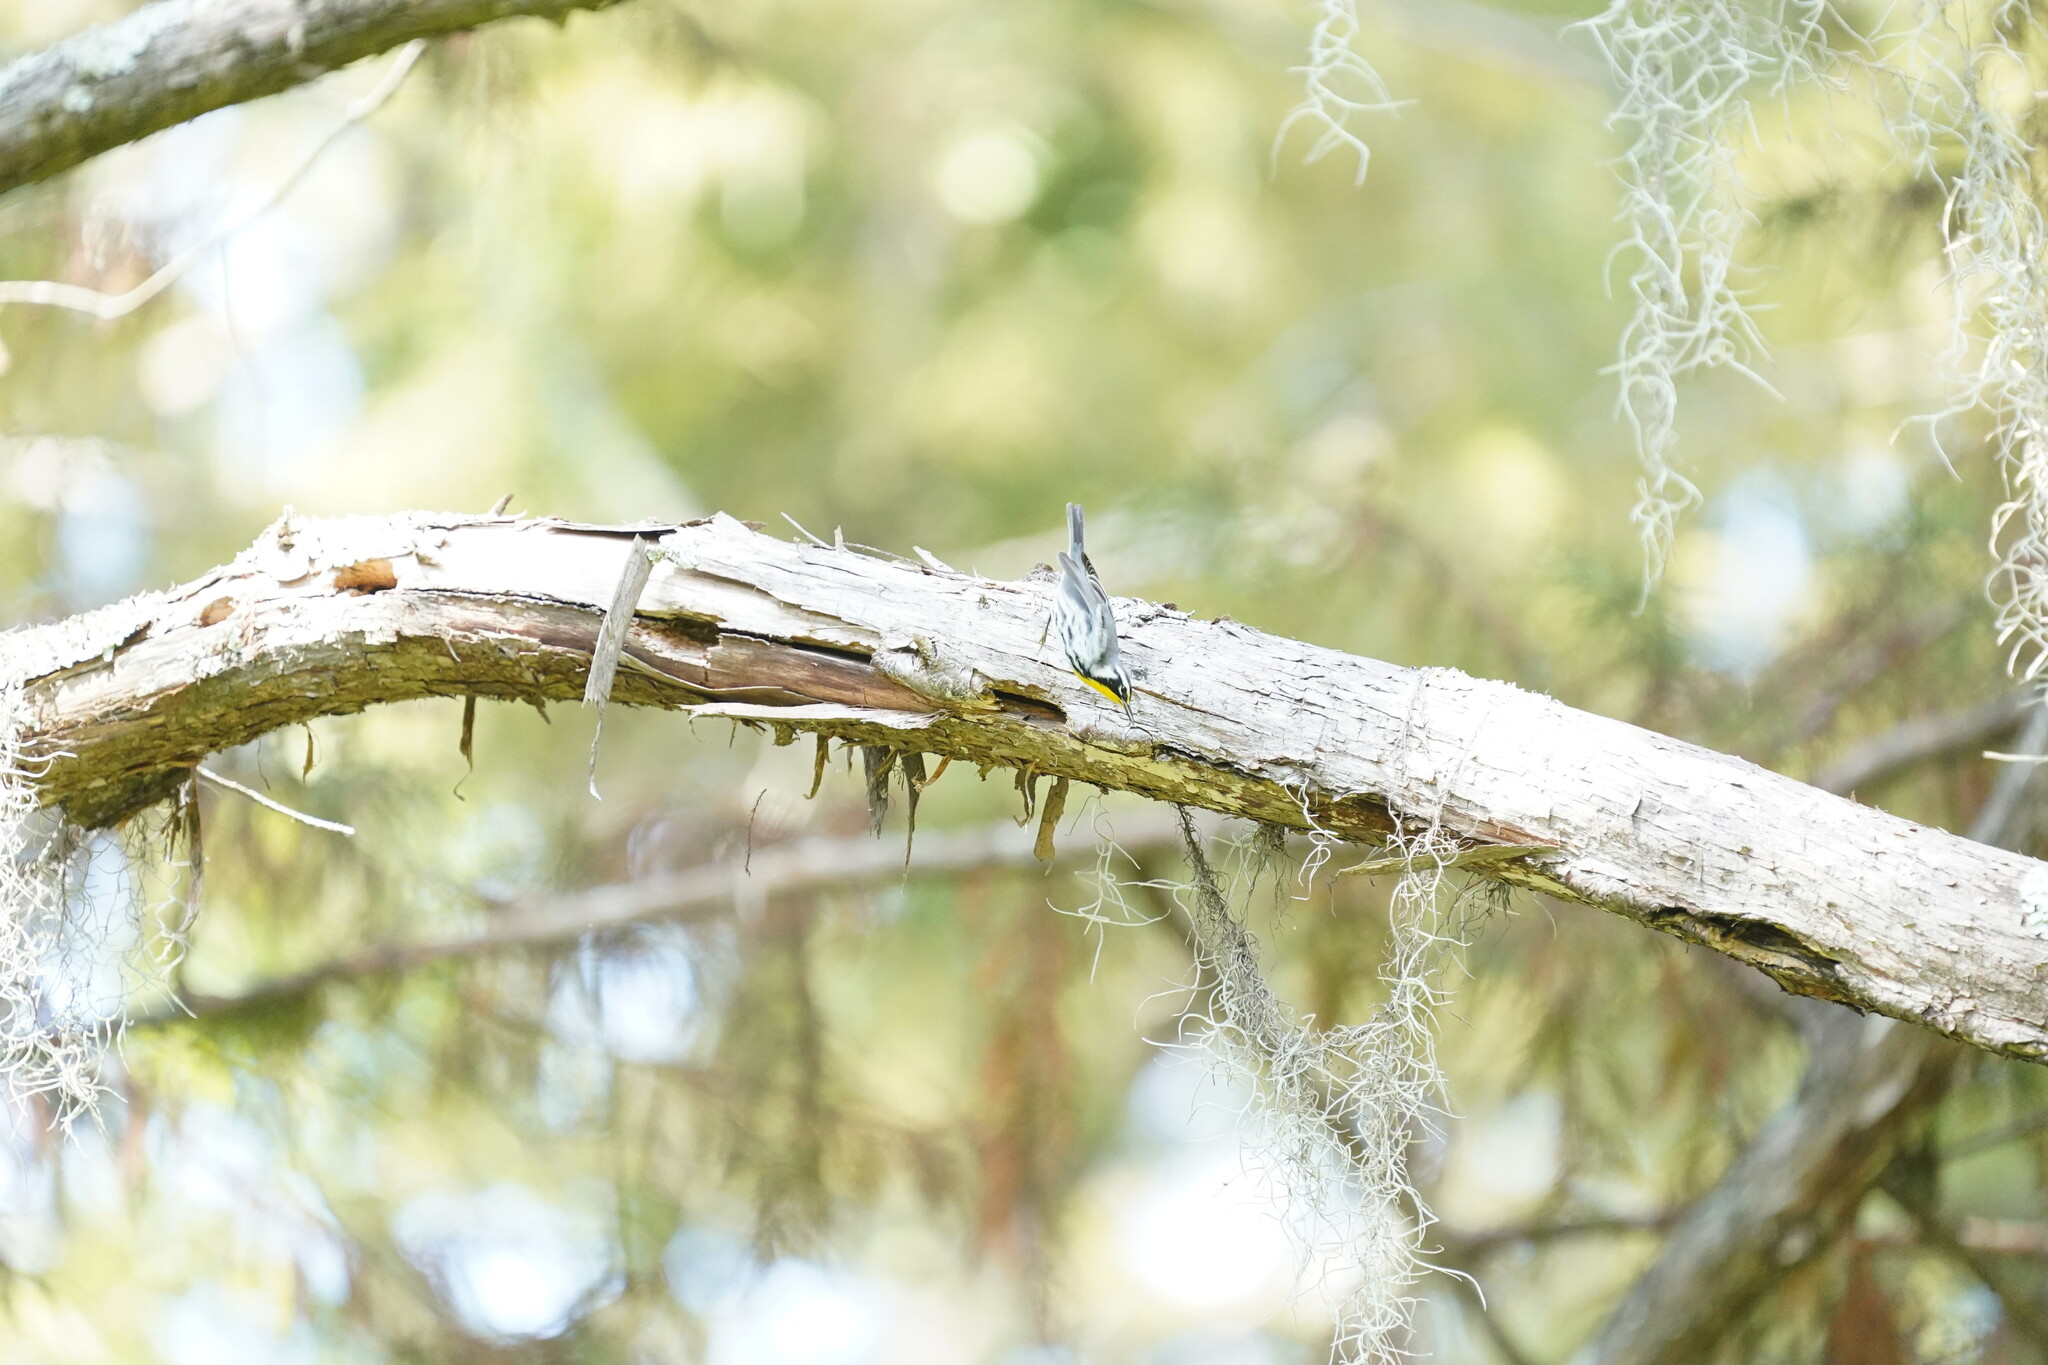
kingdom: Animalia
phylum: Chordata
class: Aves
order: Passeriformes
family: Parulidae
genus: Setophaga
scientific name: Setophaga dominica
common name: Yellow-throated warbler
